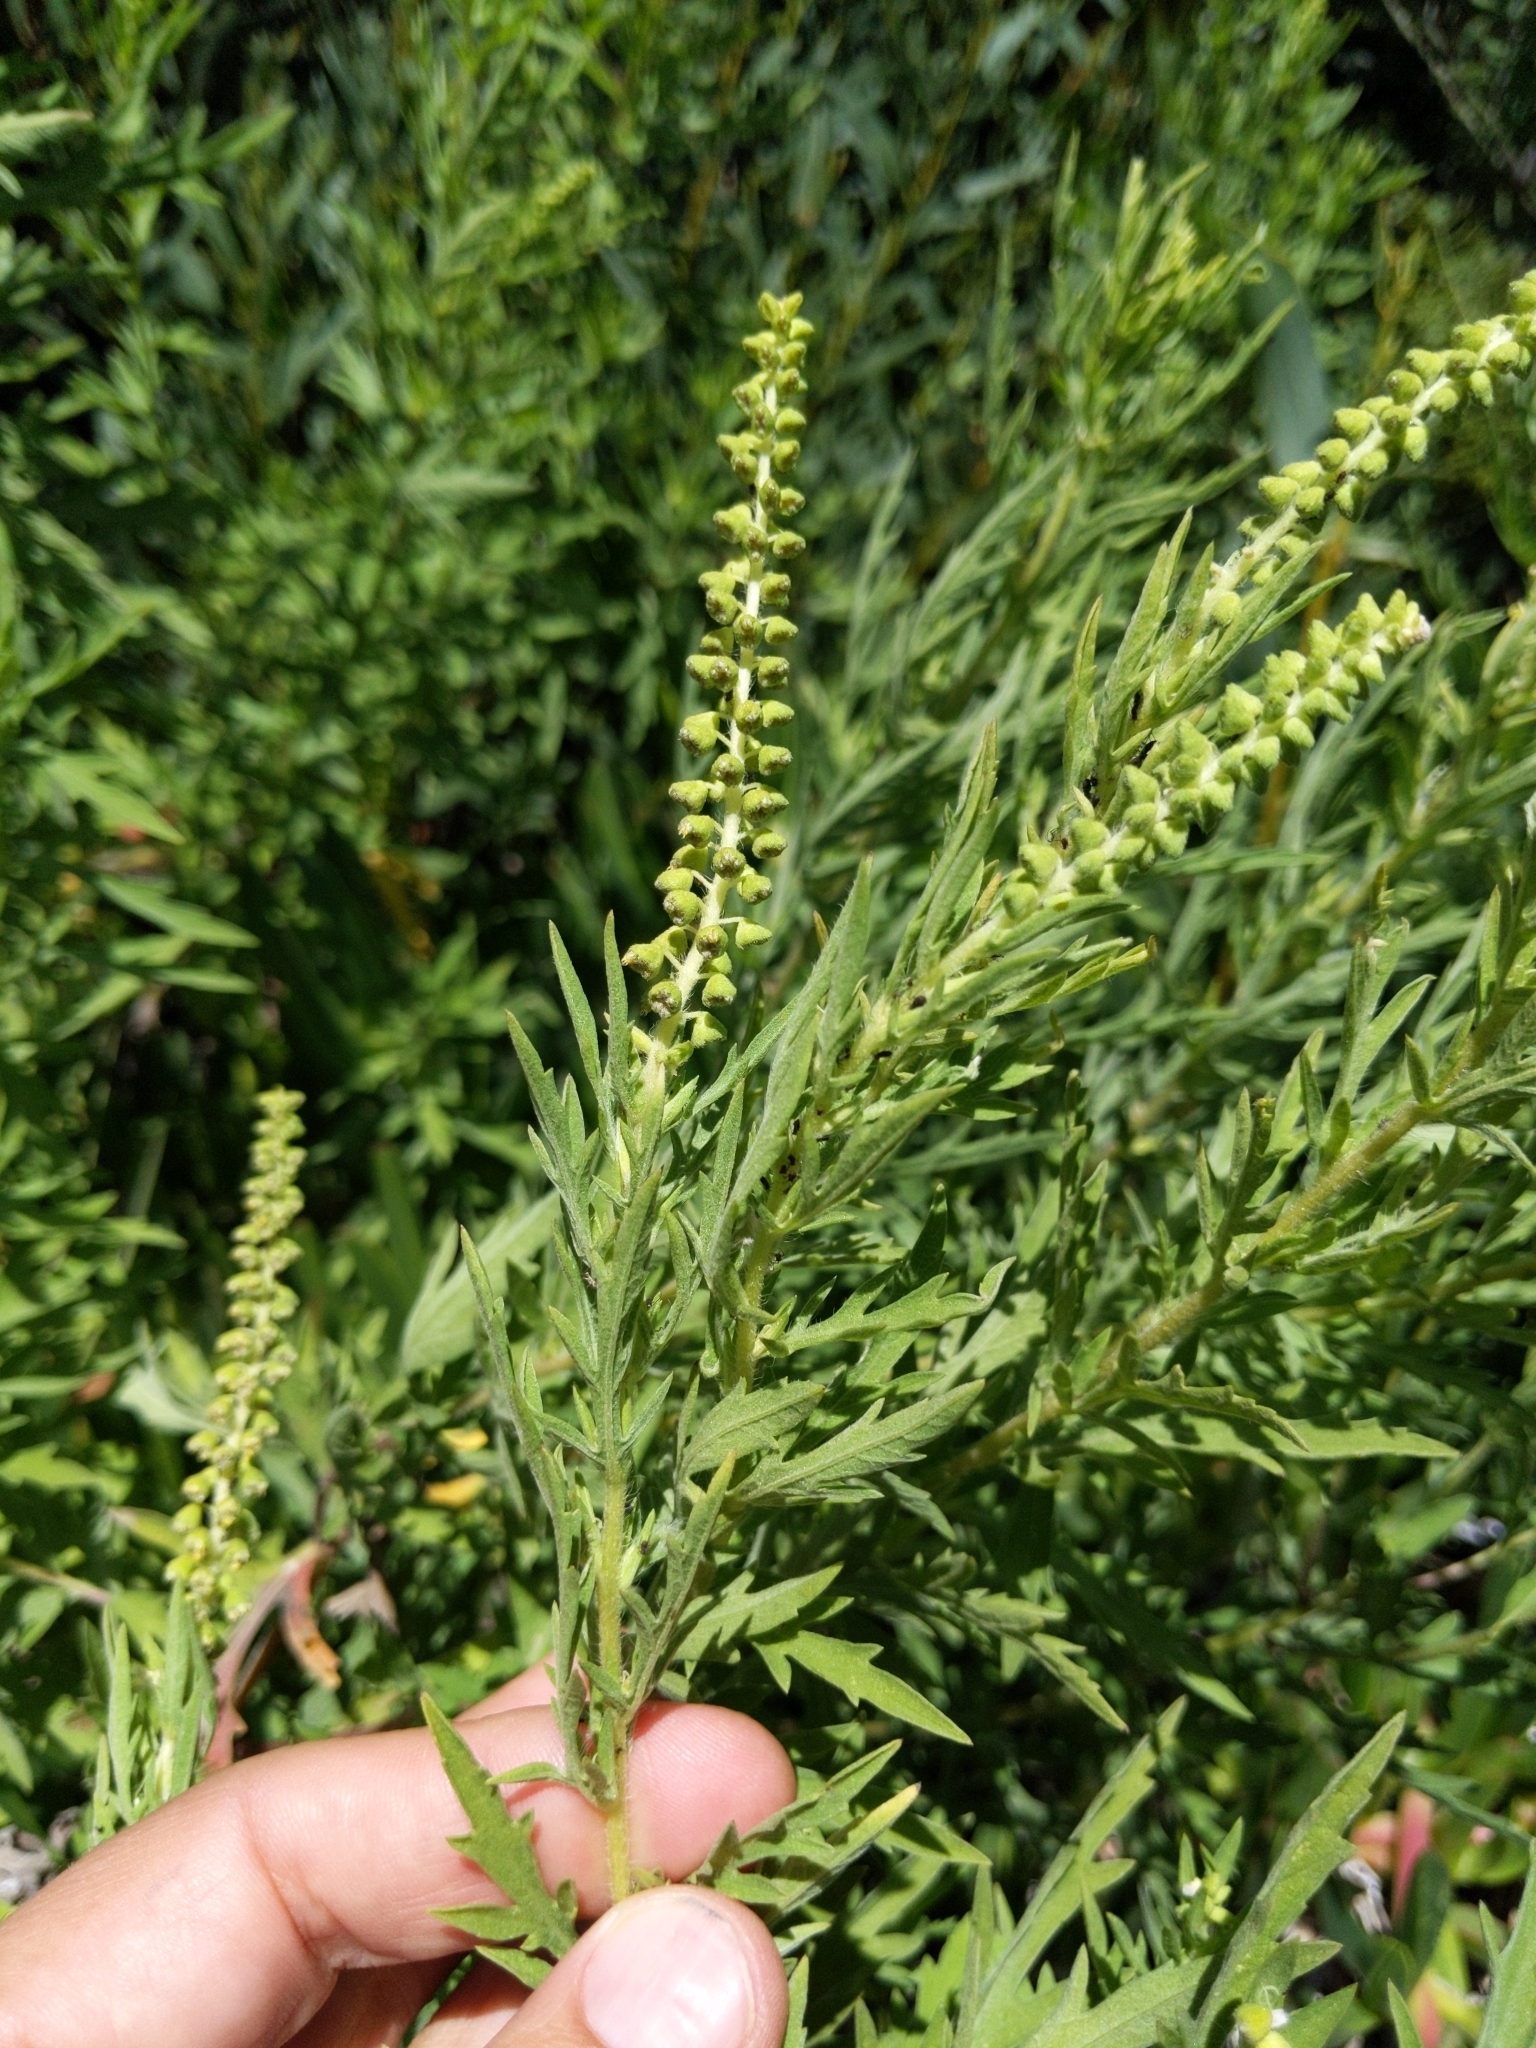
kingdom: Plantae
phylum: Tracheophyta
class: Magnoliopsida
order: Asterales
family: Asteraceae
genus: Ambrosia
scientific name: Ambrosia psilostachya
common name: Perennial ragweed
